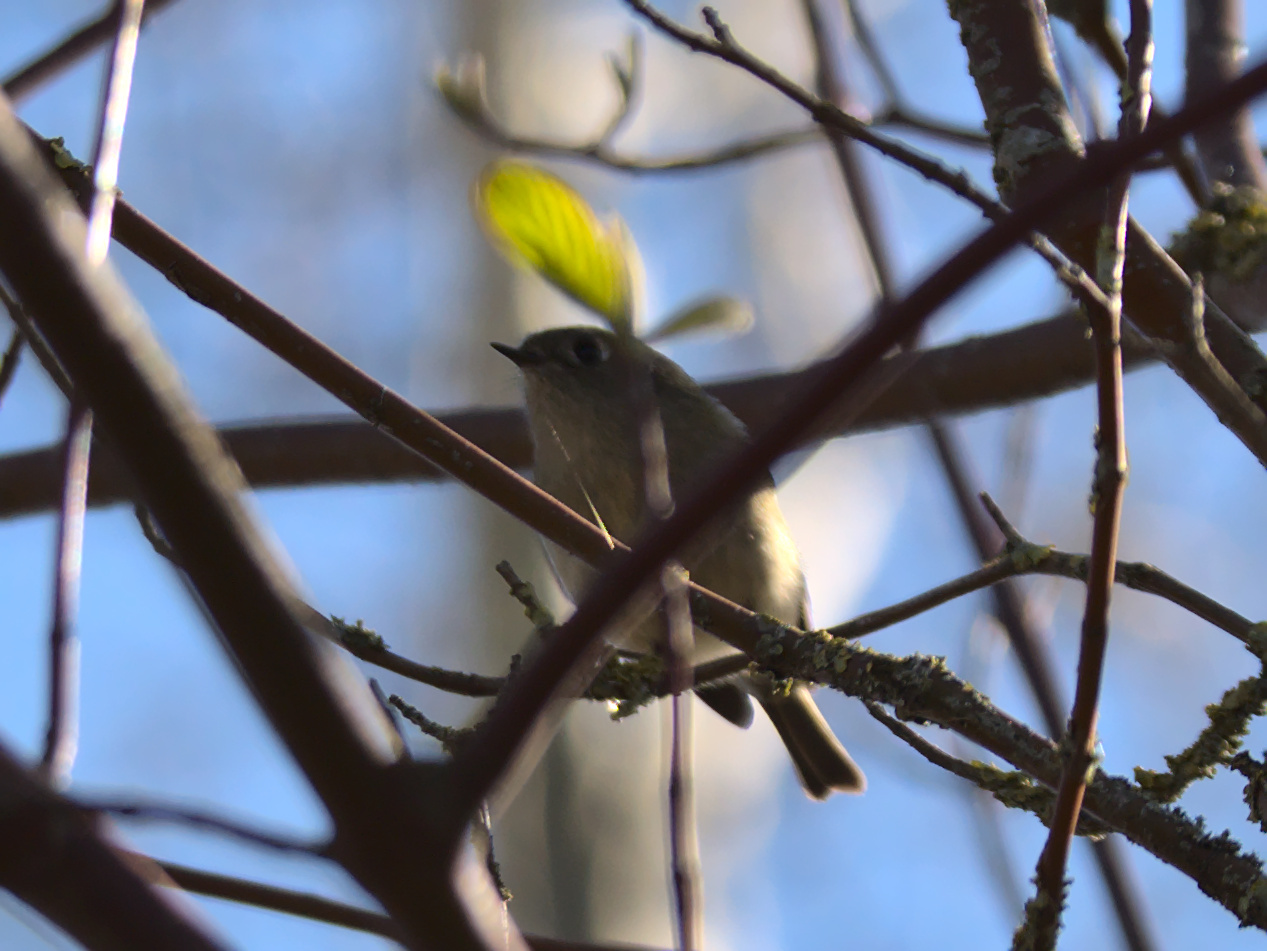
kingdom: Animalia
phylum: Chordata
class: Aves
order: Passeriformes
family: Regulidae
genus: Regulus
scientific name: Regulus calendula
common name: Ruby-crowned kinglet
